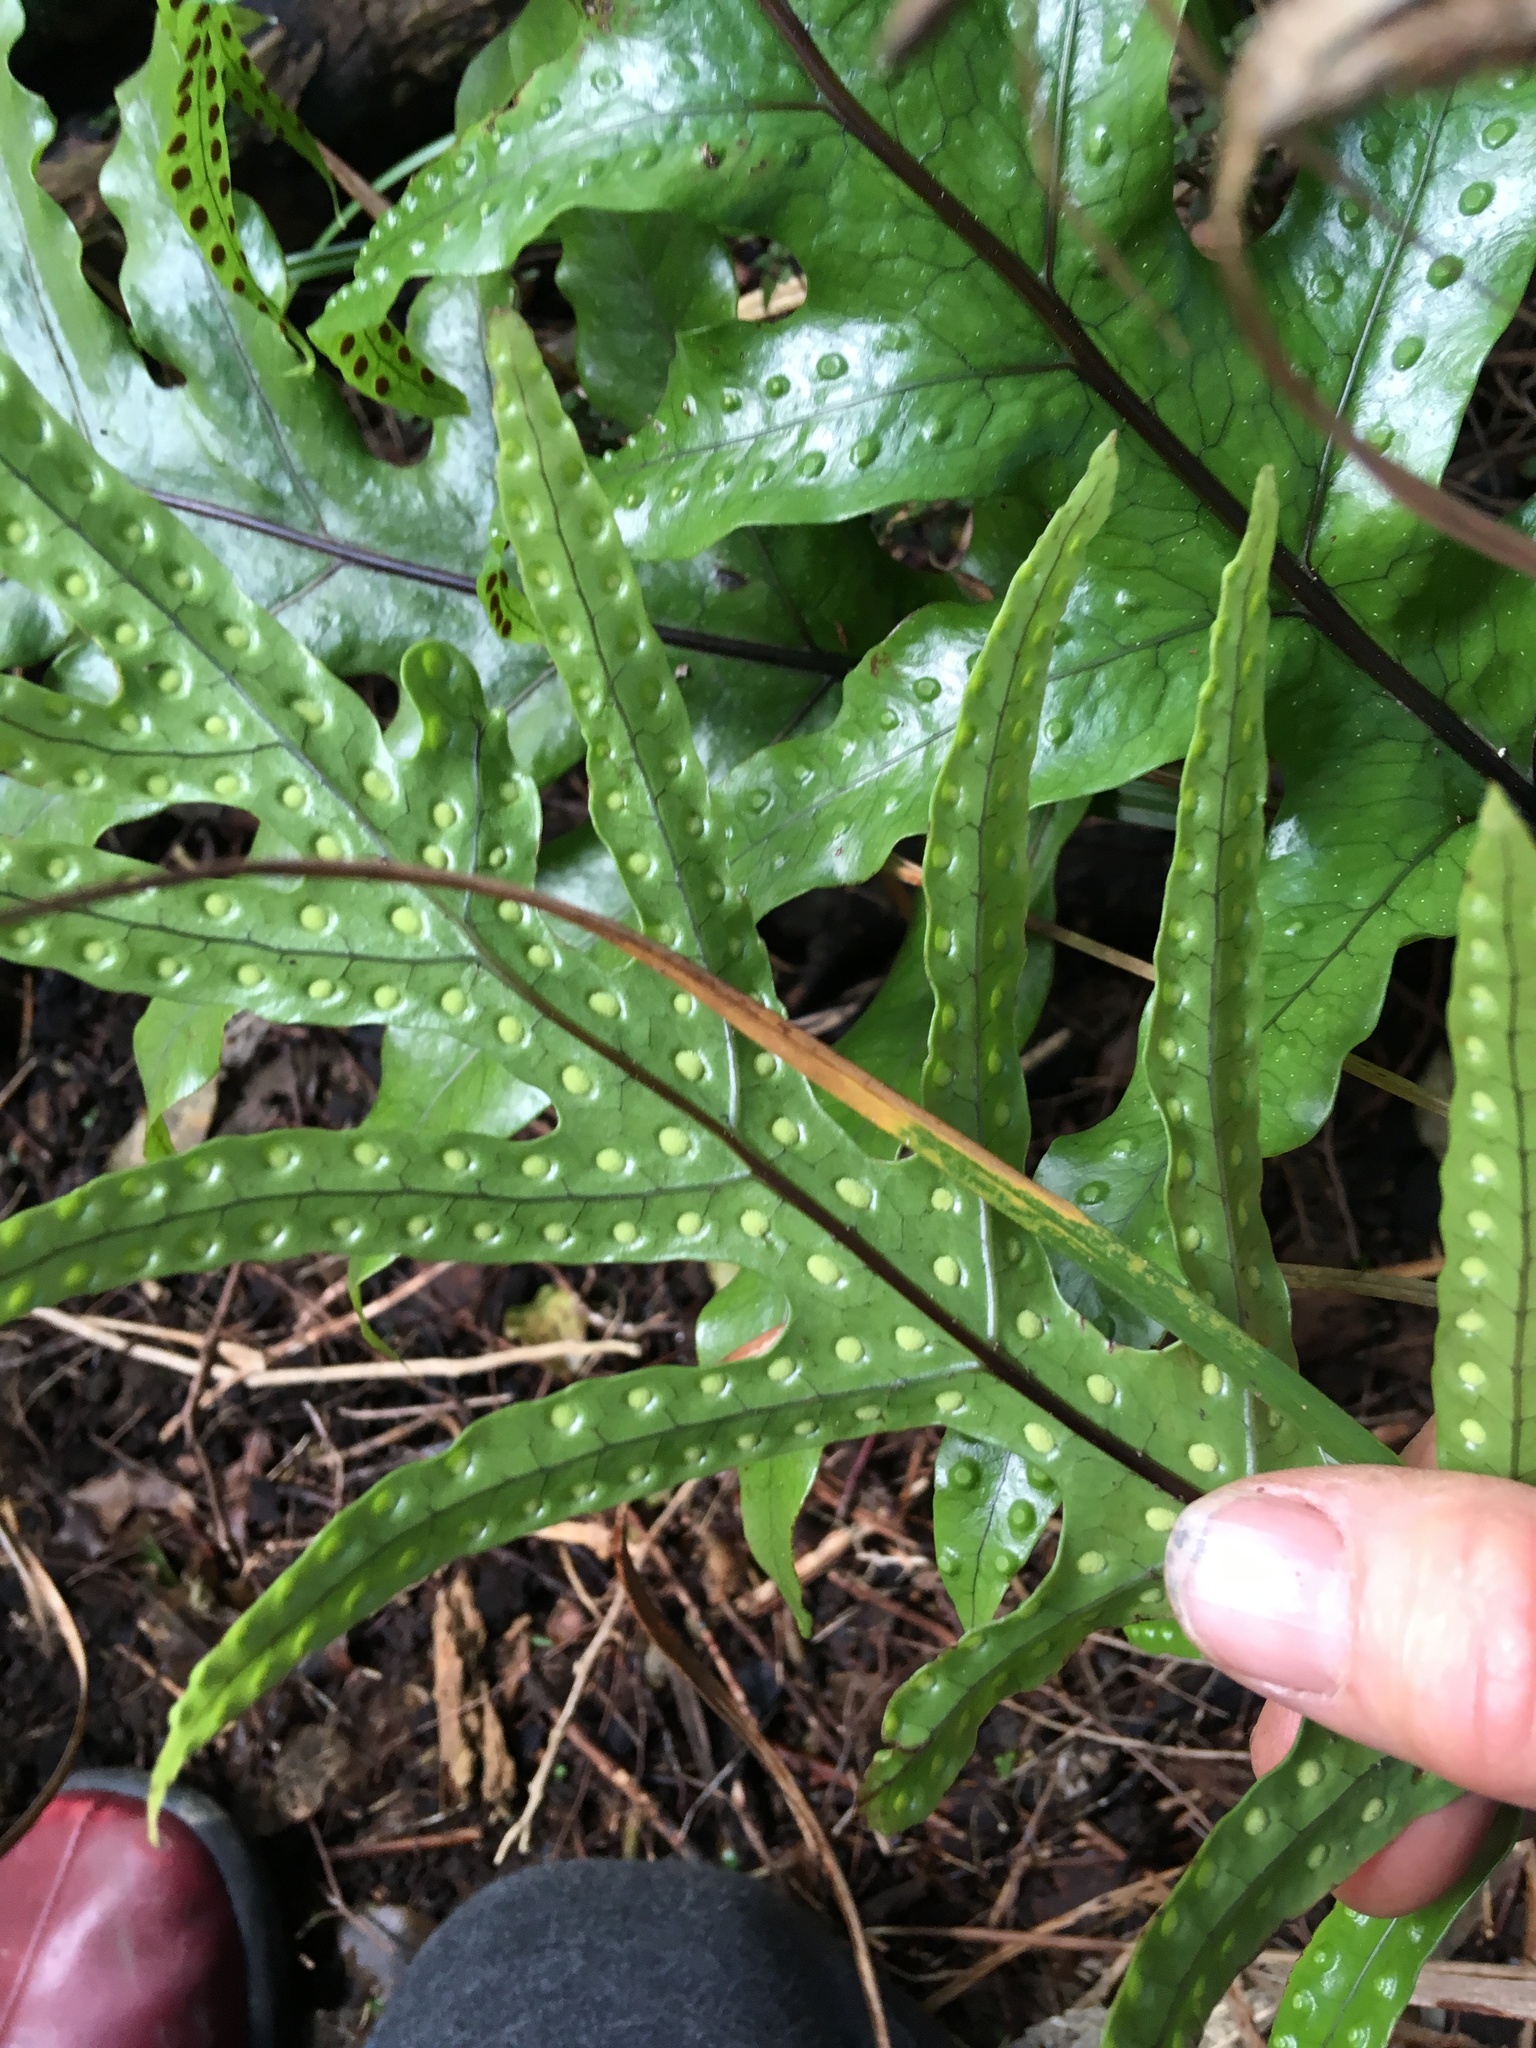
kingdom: Plantae
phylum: Tracheophyta
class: Polypodiopsida
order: Polypodiales
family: Polypodiaceae
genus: Lecanopteris
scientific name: Lecanopteris pustulata
